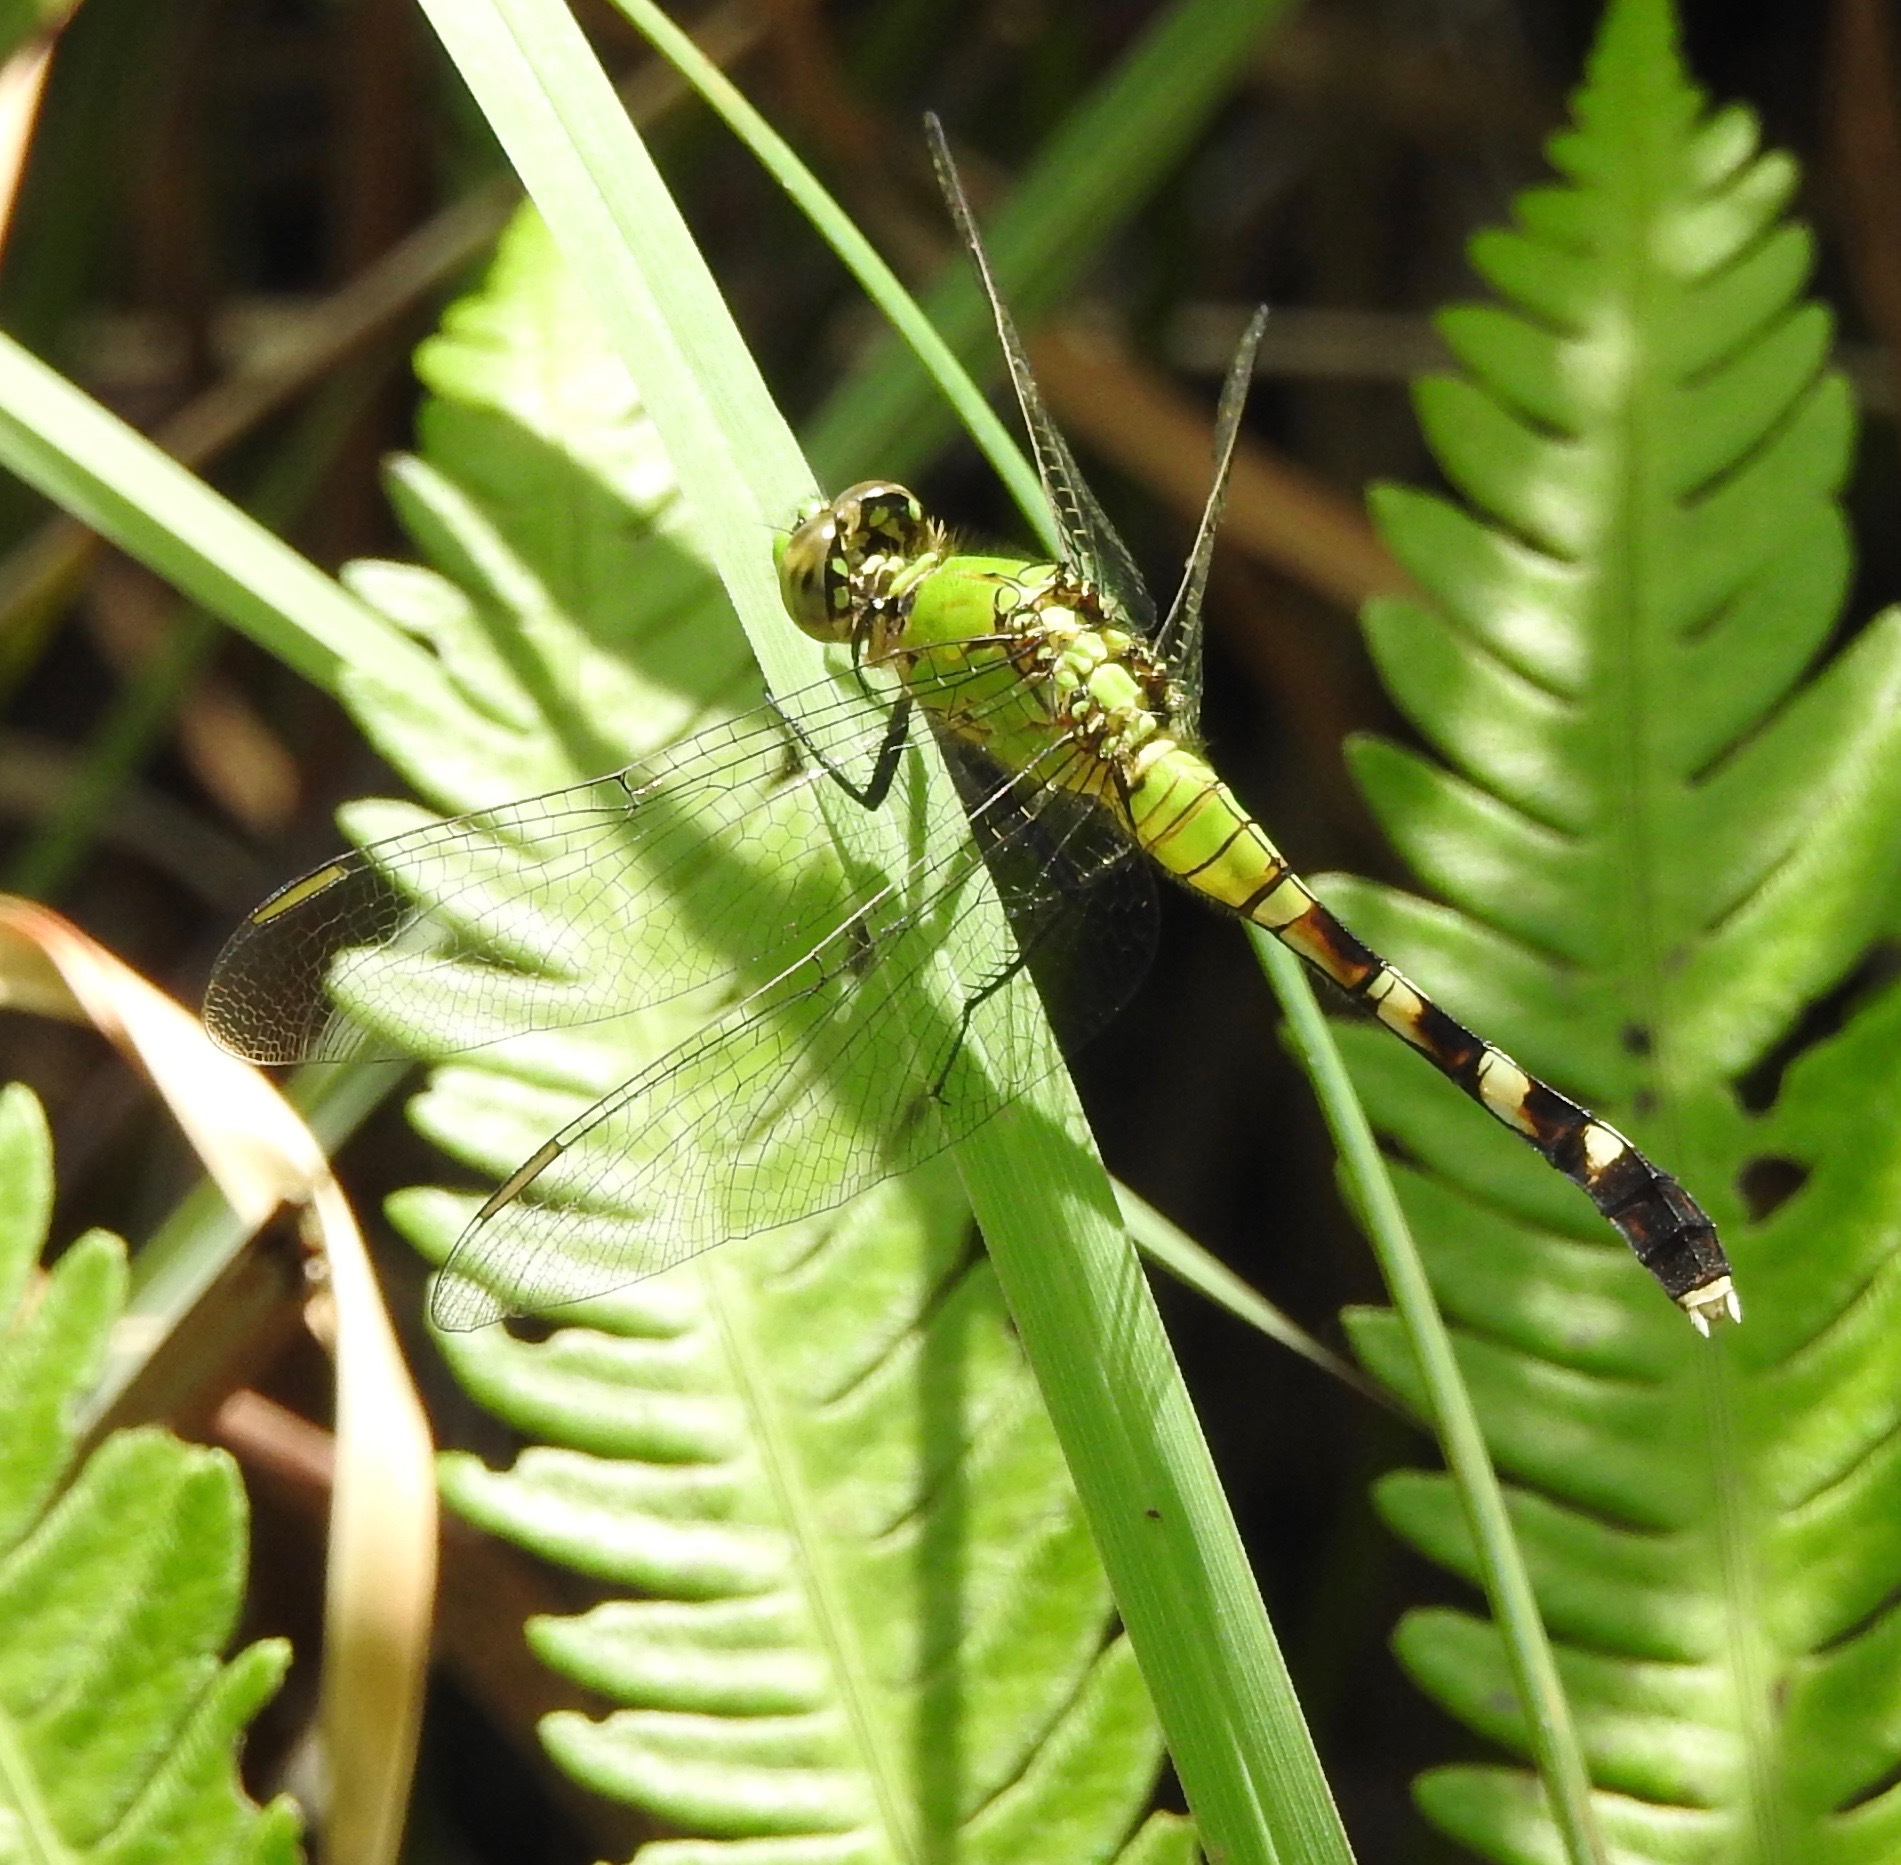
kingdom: Animalia
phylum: Arthropoda
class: Insecta
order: Odonata
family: Libellulidae
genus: Erythemis
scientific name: Erythemis simplicicollis
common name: Eastern pondhawk
